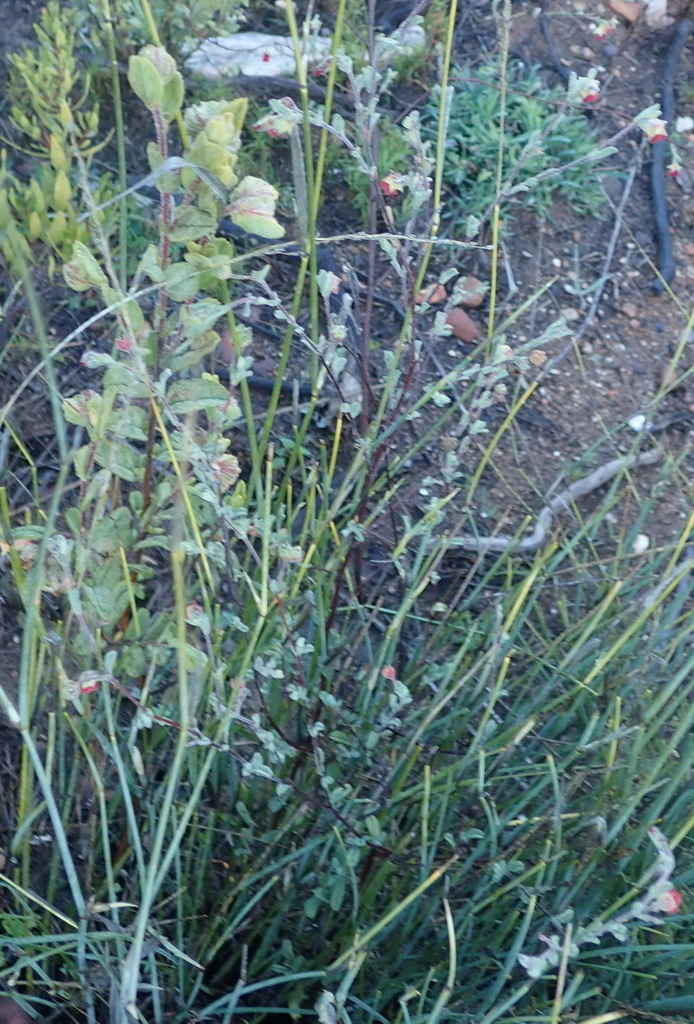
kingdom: Plantae
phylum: Tracheophyta
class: Magnoliopsida
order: Malvales
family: Malvaceae
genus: Hermannia
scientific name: Hermannia flammula
